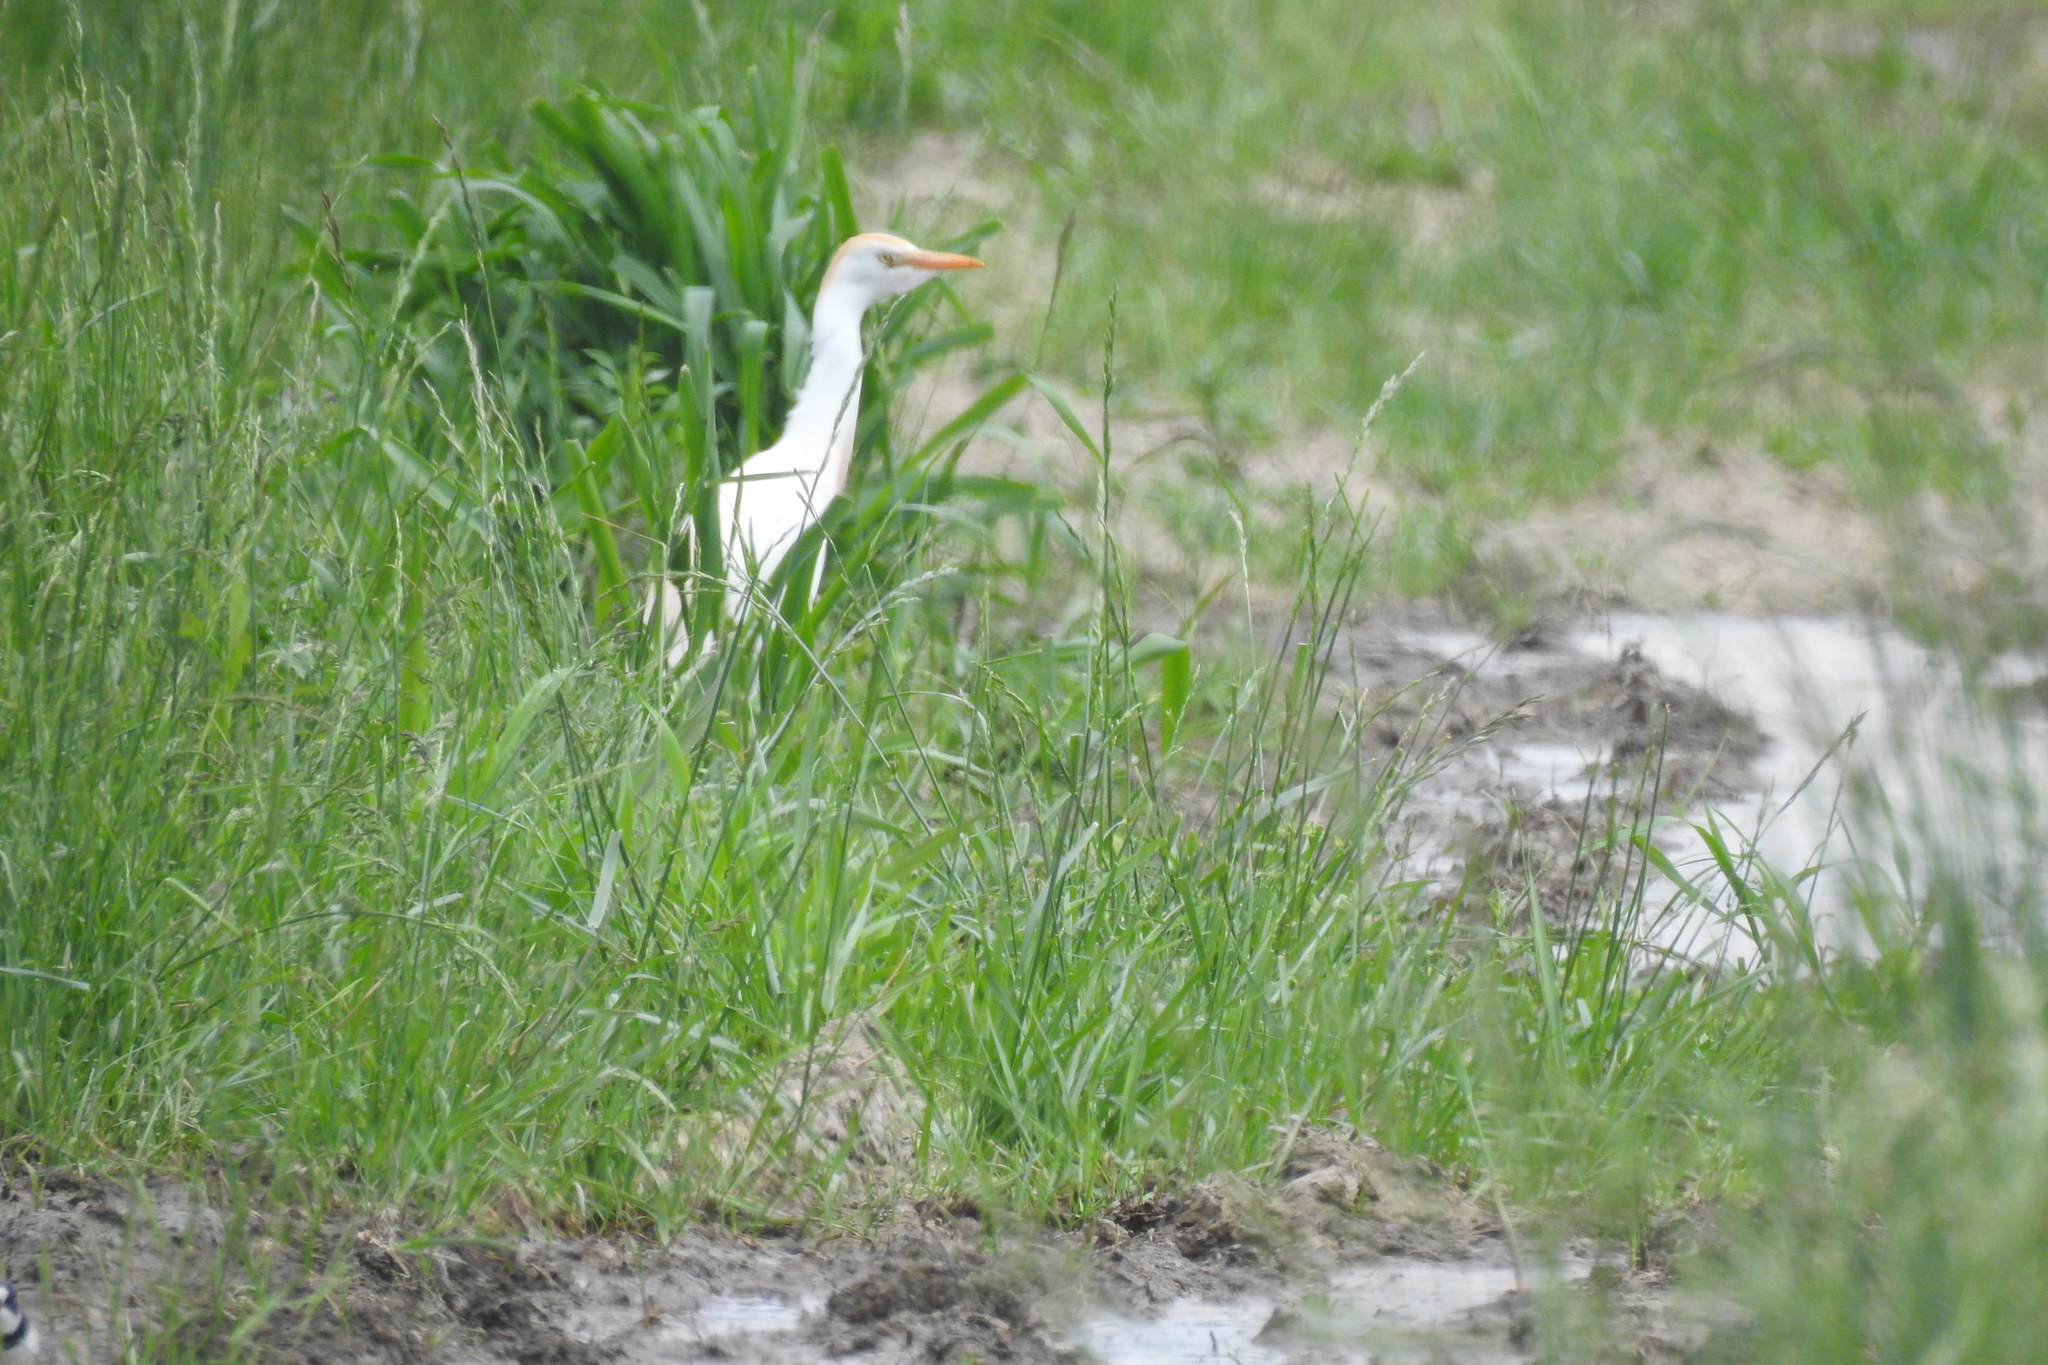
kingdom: Animalia
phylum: Chordata
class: Aves
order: Pelecaniformes
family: Ardeidae
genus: Bubulcus
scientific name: Bubulcus ibis
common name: Cattle egret
